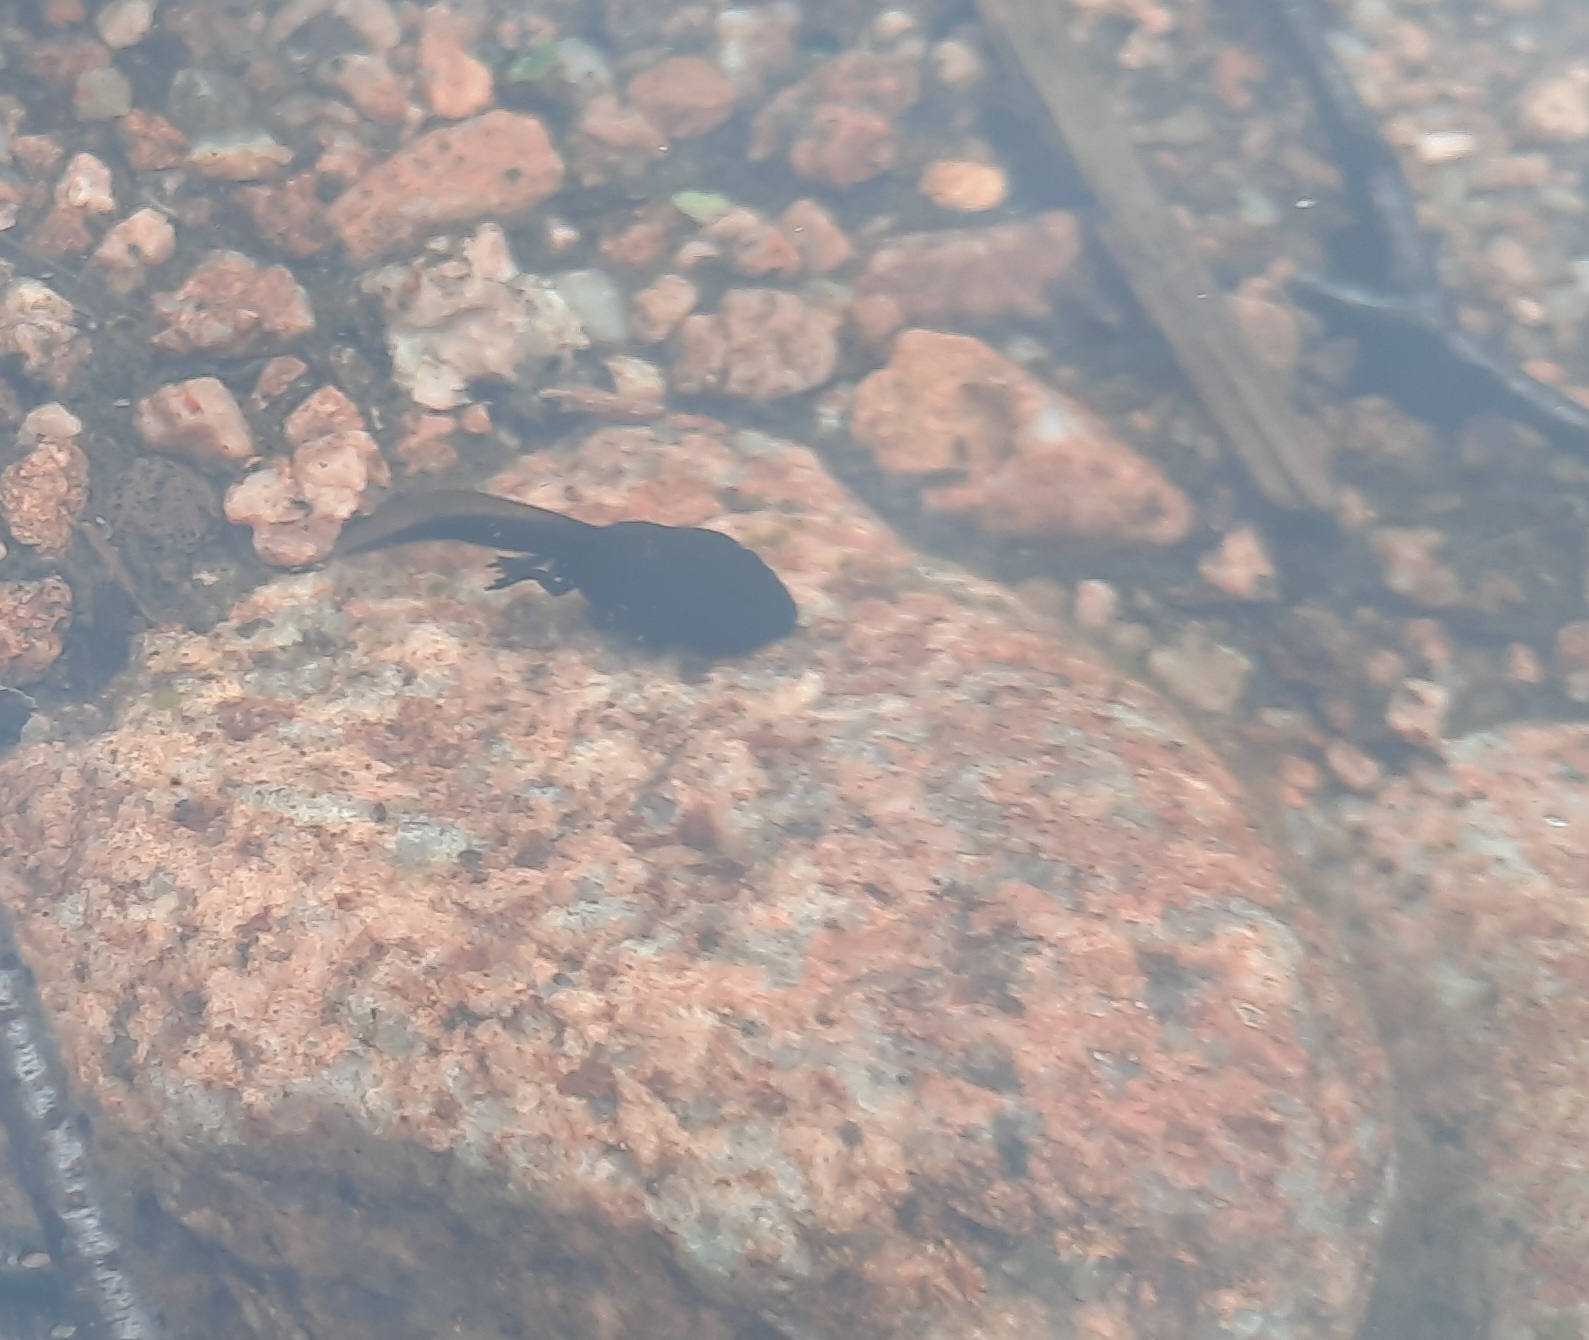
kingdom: Animalia
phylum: Chordata
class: Amphibia
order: Anura
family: Bufonidae
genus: Bufo
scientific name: Bufo bufo
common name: Common toad
